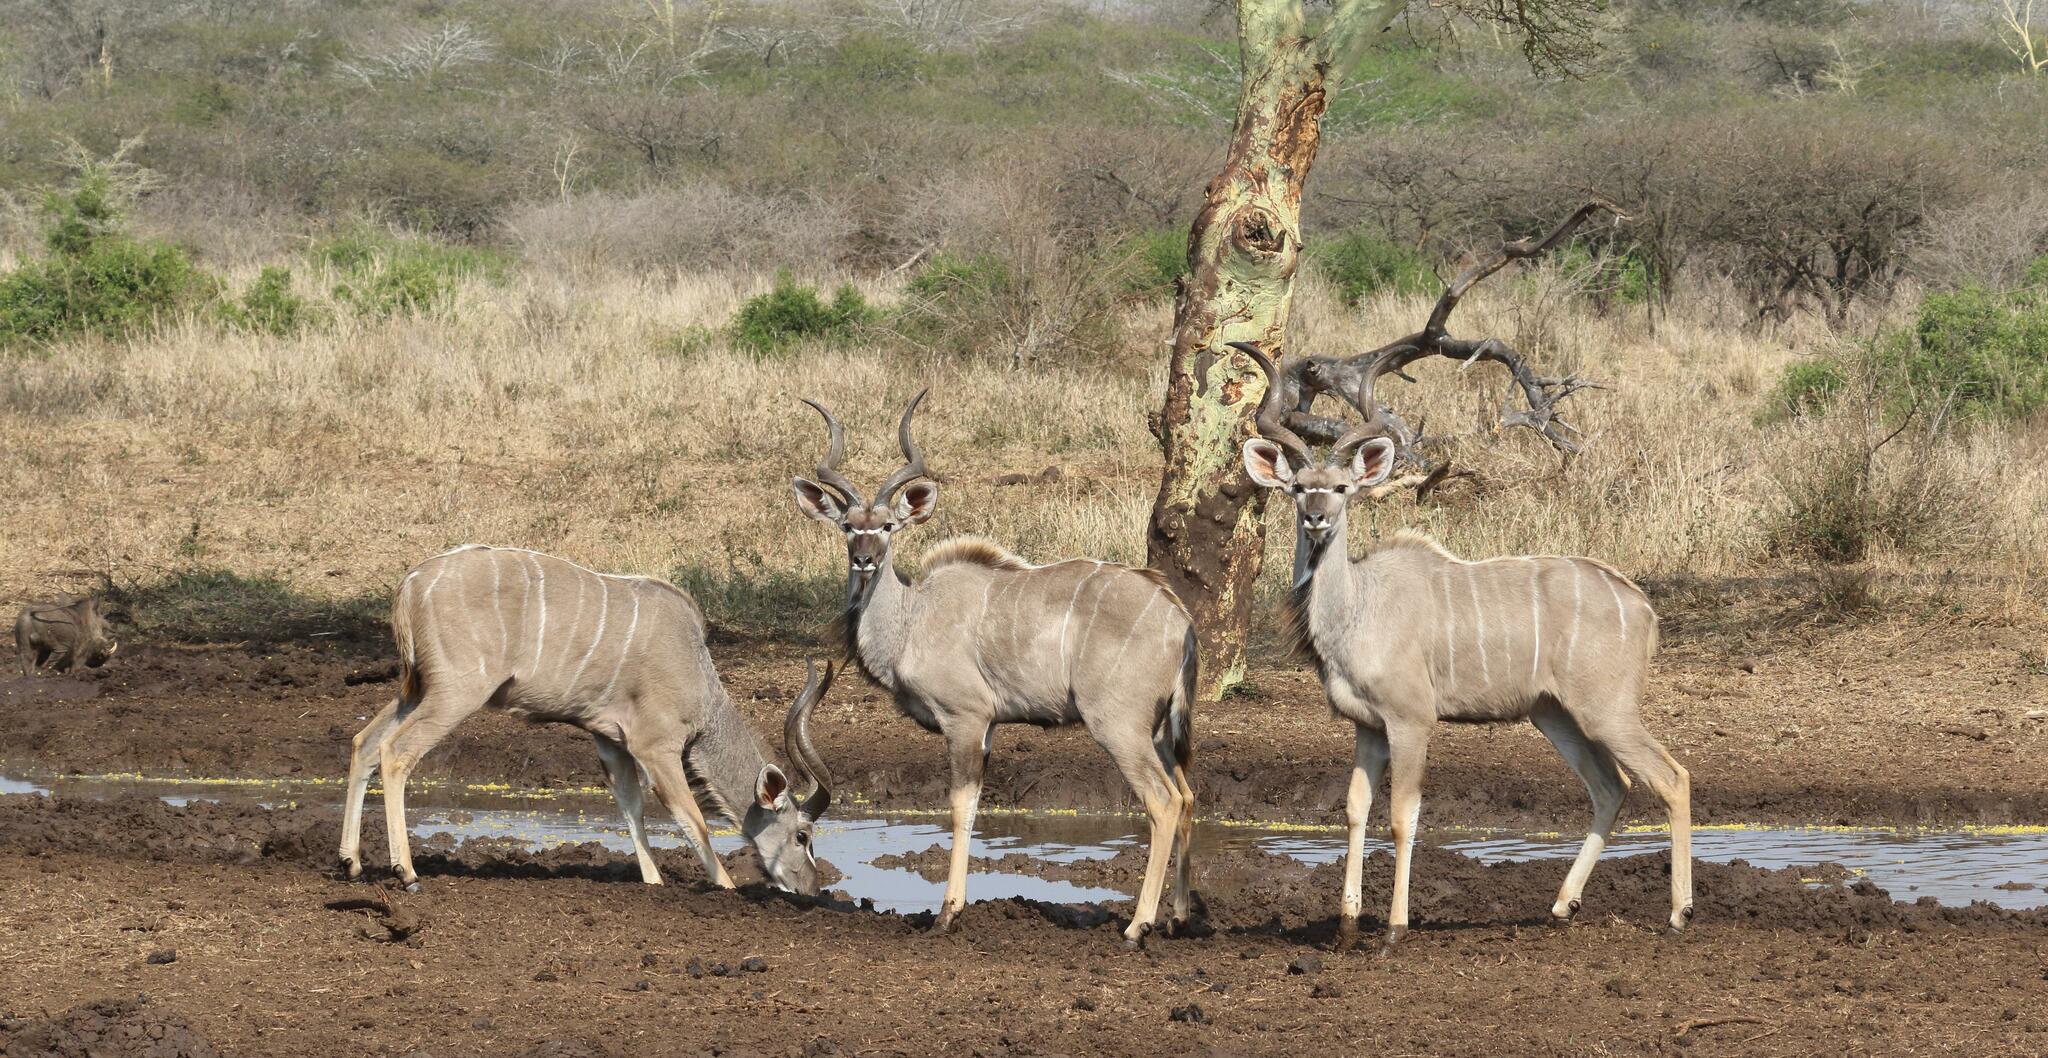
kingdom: Animalia
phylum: Chordata
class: Mammalia
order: Artiodactyla
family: Bovidae
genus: Tragelaphus
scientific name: Tragelaphus strepsiceros
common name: Greater kudu
